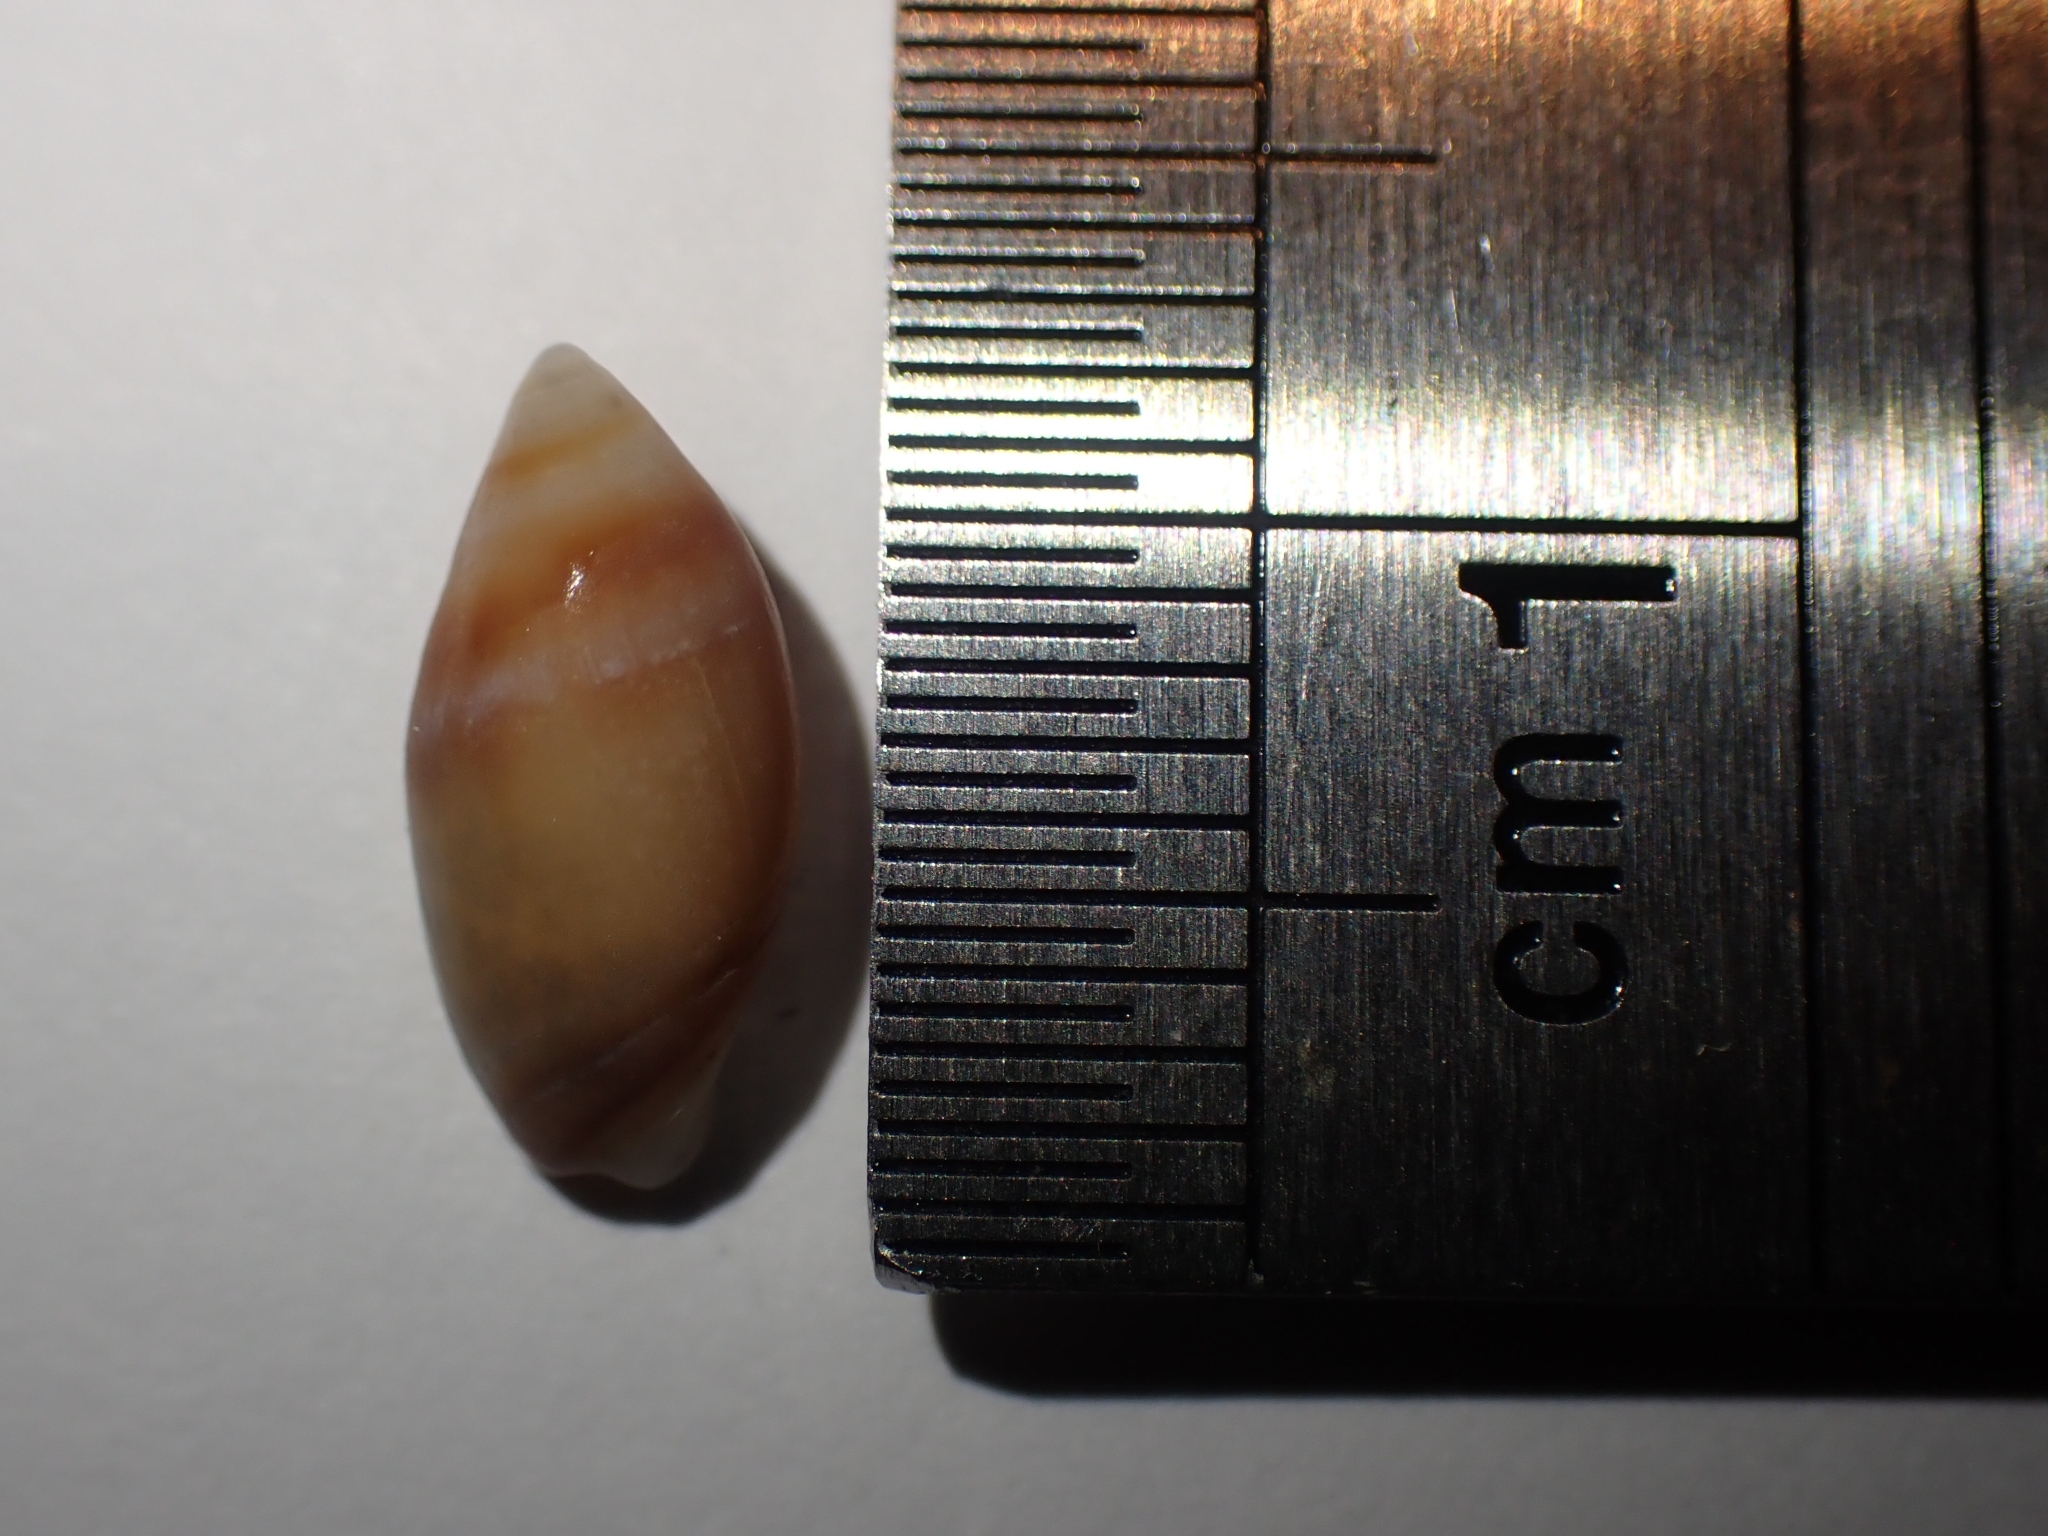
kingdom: Animalia
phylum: Mollusca
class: Gastropoda
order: Neogastropoda
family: Ancillariidae
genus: Amalda
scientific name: Amalda australis
